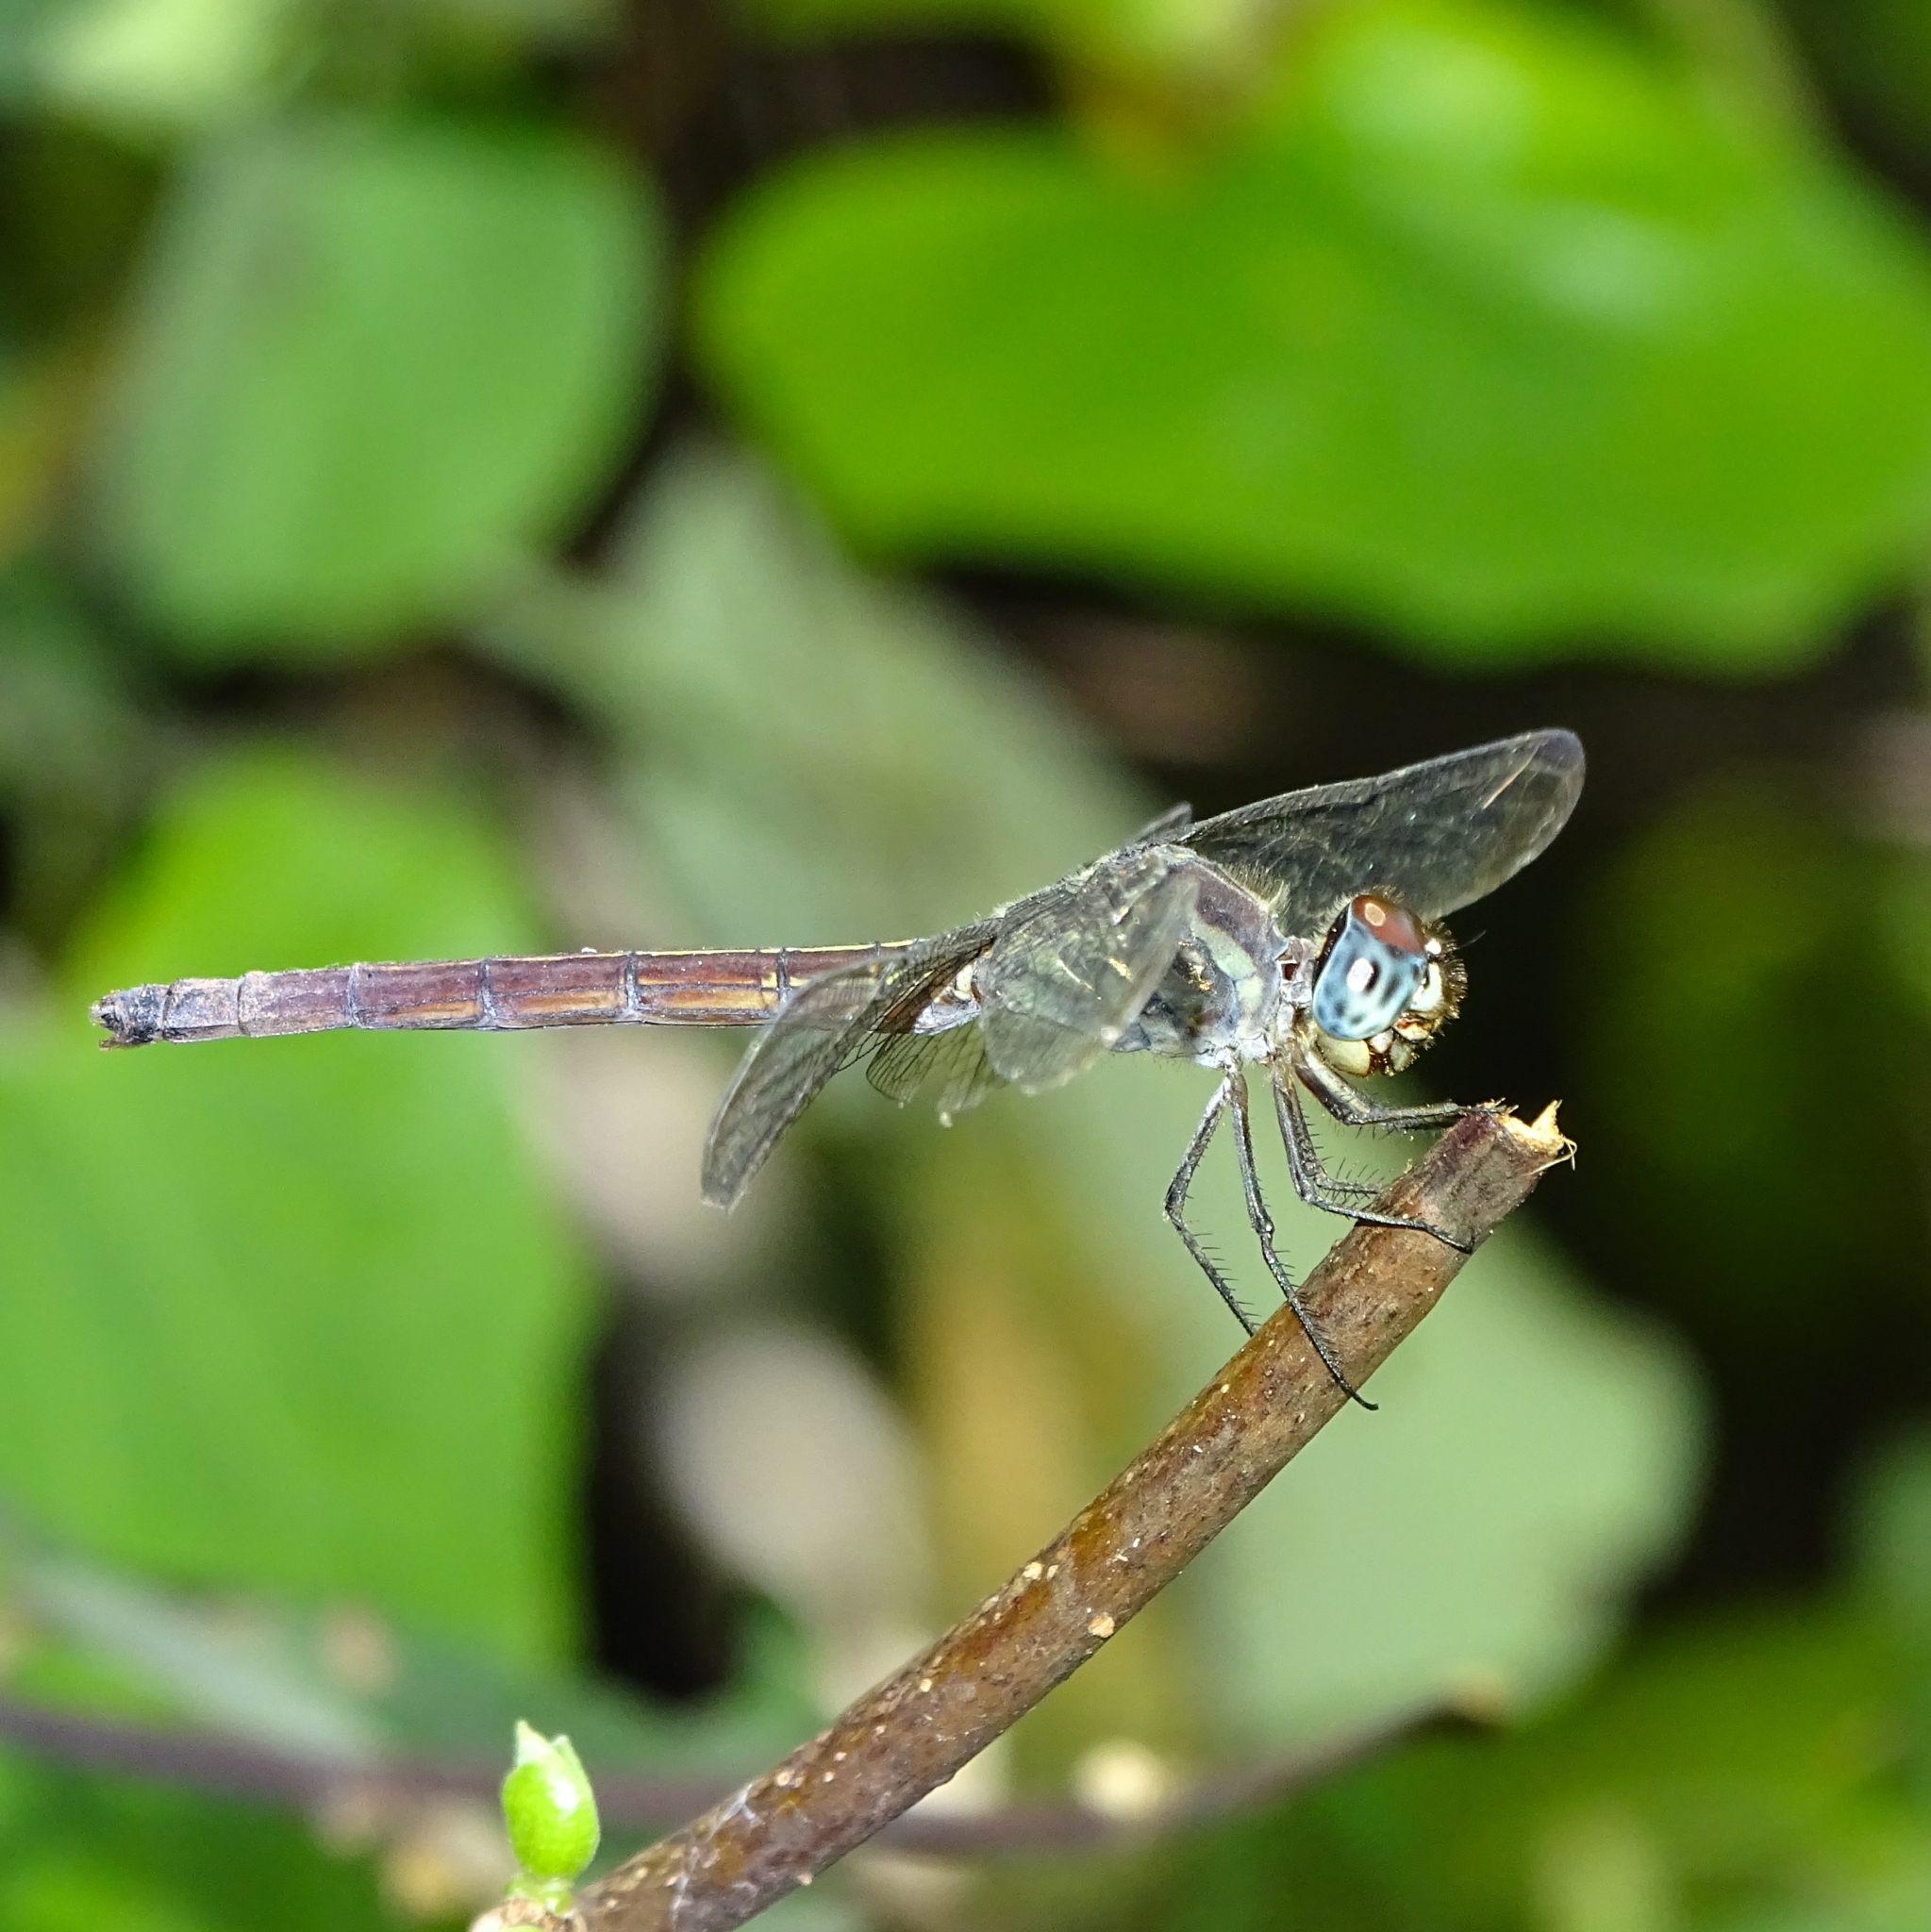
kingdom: Animalia
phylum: Arthropoda
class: Insecta
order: Odonata
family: Libellulidae
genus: Lathrecista
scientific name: Lathrecista asiatica
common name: Scarlet grenadier
